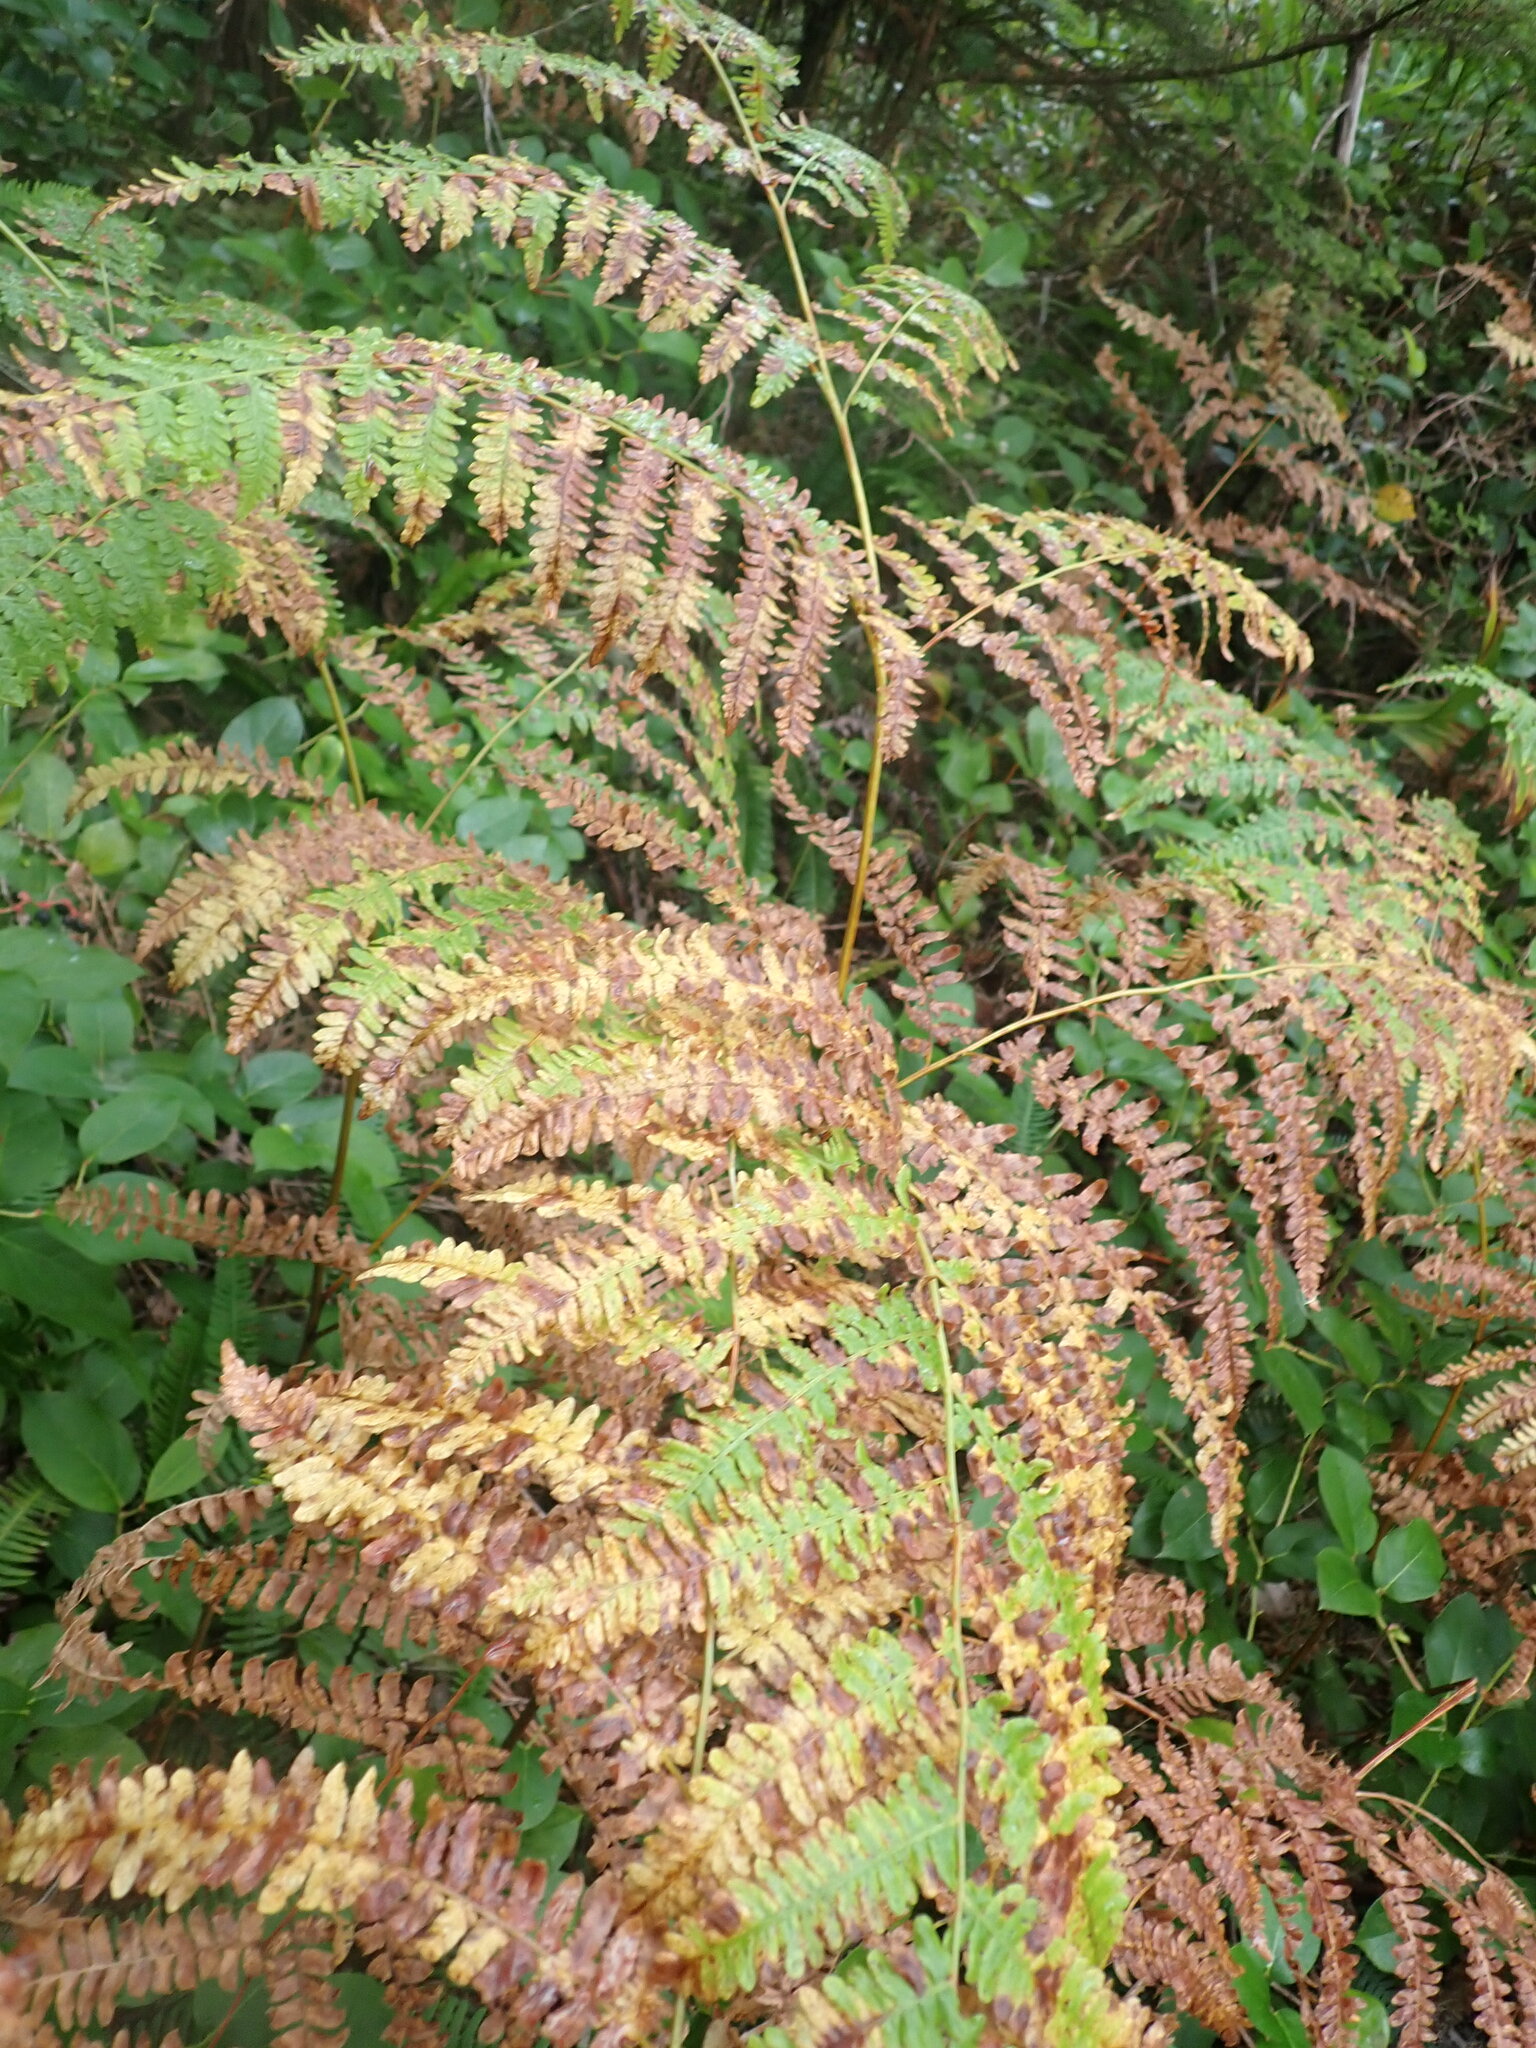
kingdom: Plantae
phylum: Tracheophyta
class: Polypodiopsida
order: Polypodiales
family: Dennstaedtiaceae
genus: Pteridium
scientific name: Pteridium aquilinum
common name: Bracken
